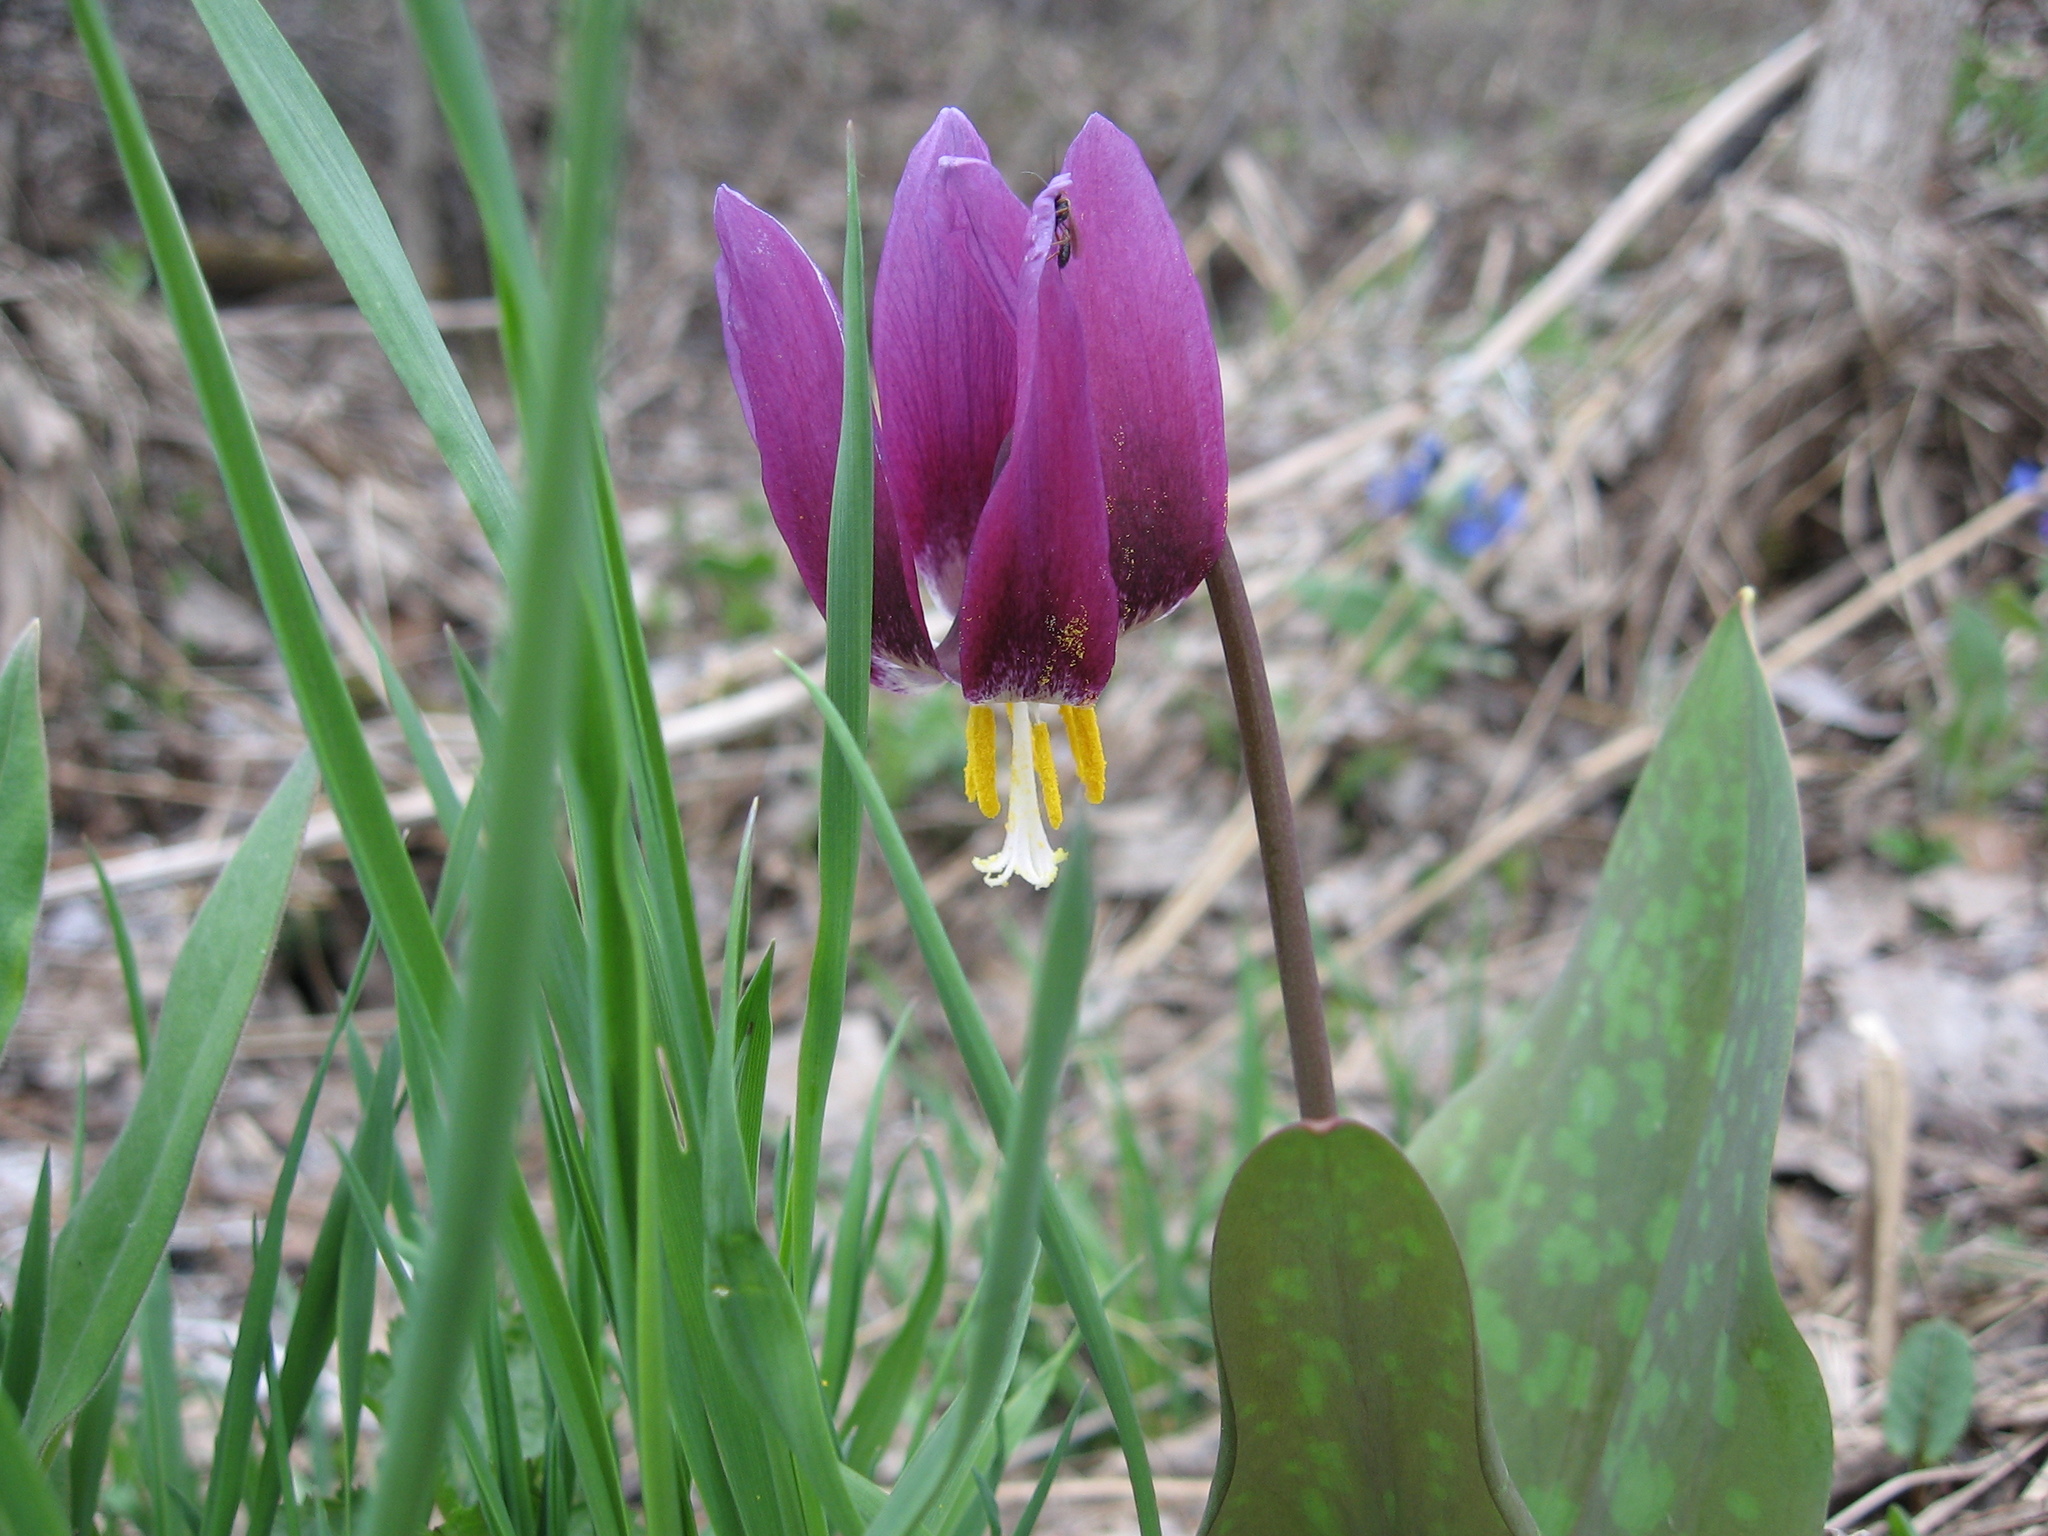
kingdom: Plantae
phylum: Tracheophyta
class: Liliopsida
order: Liliales
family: Liliaceae
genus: Erythronium
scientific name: Erythronium sibiricum
